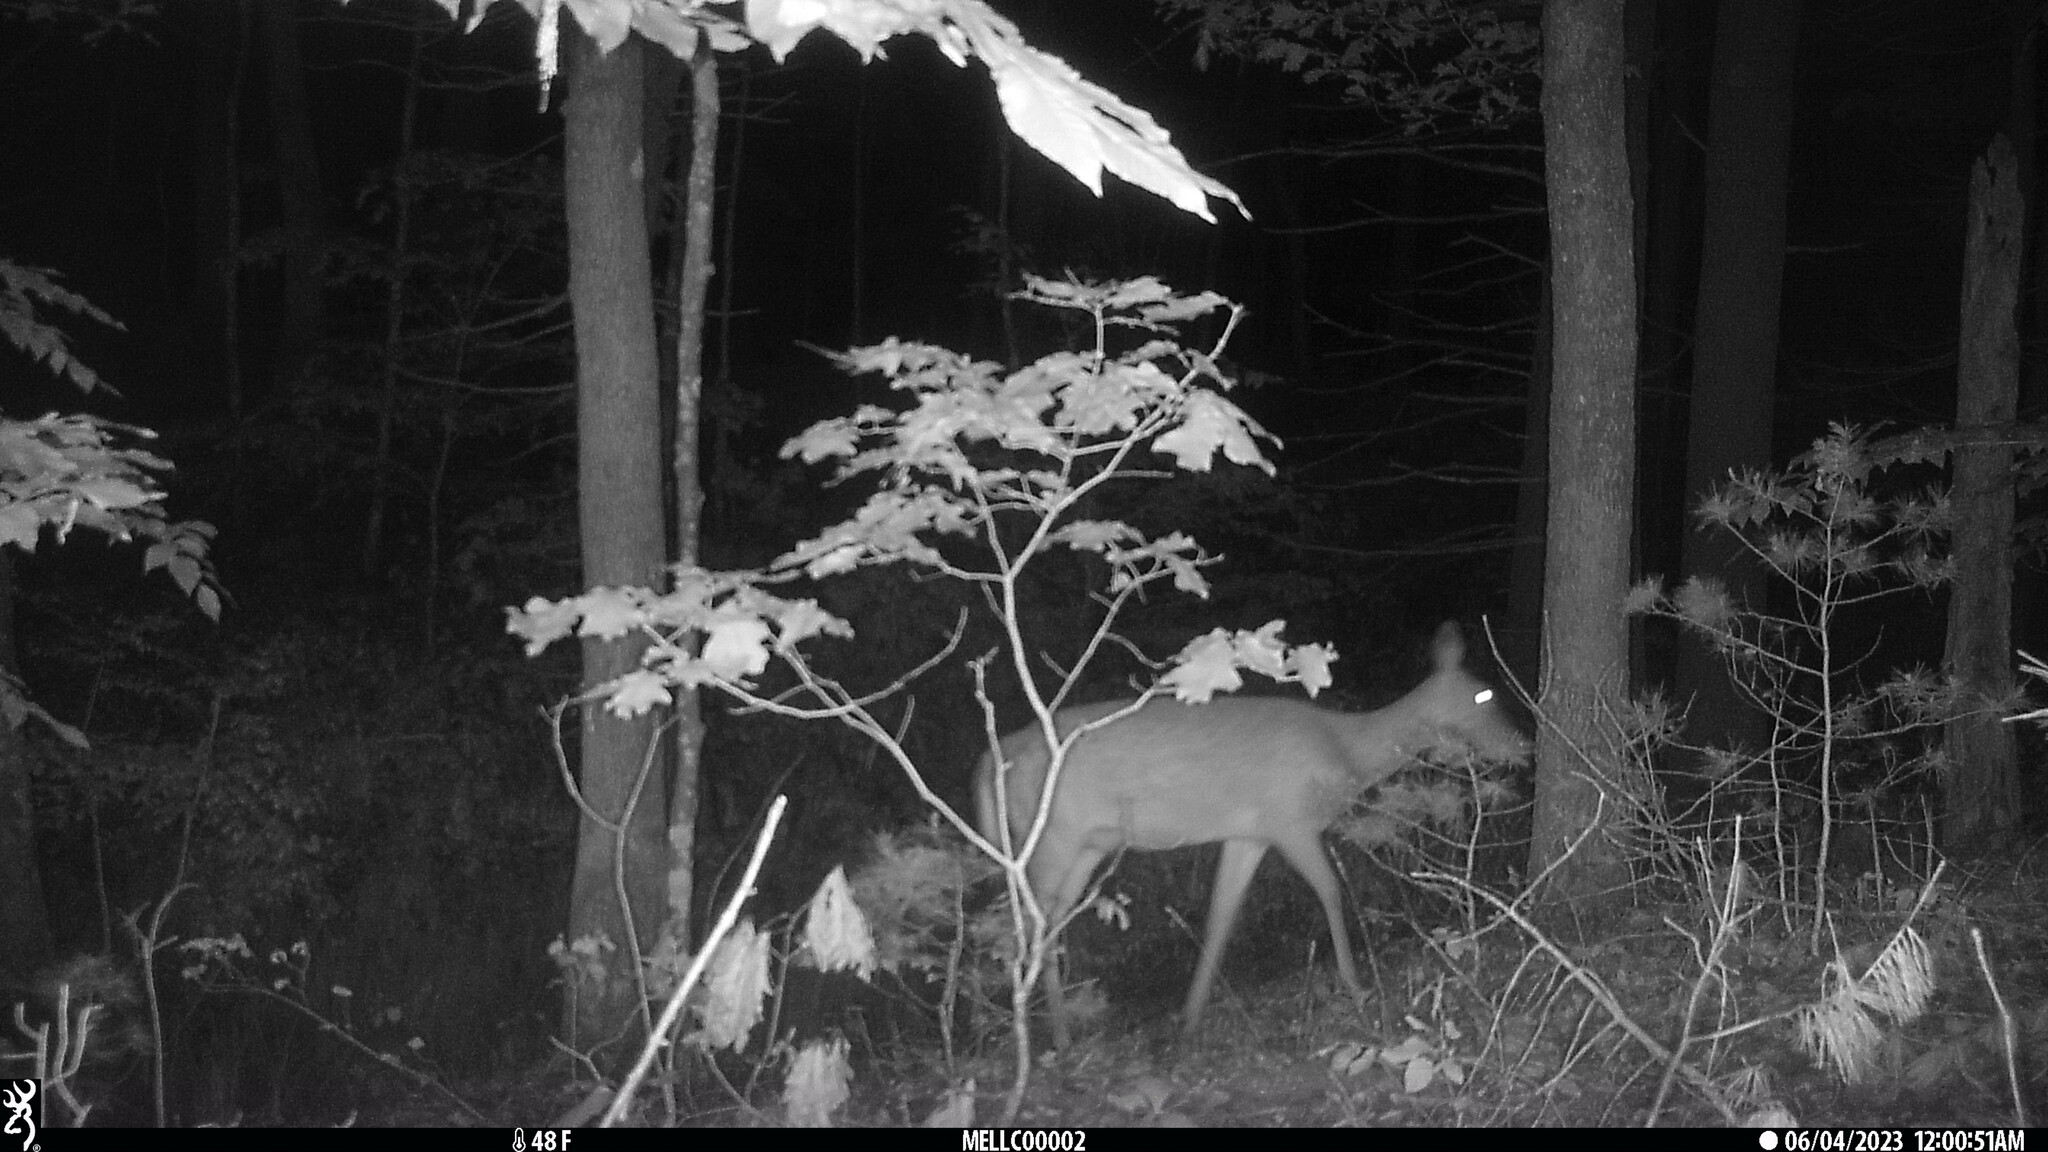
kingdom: Animalia
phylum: Chordata
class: Mammalia
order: Artiodactyla
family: Cervidae
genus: Odocoileus
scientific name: Odocoileus virginianus
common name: White-tailed deer
